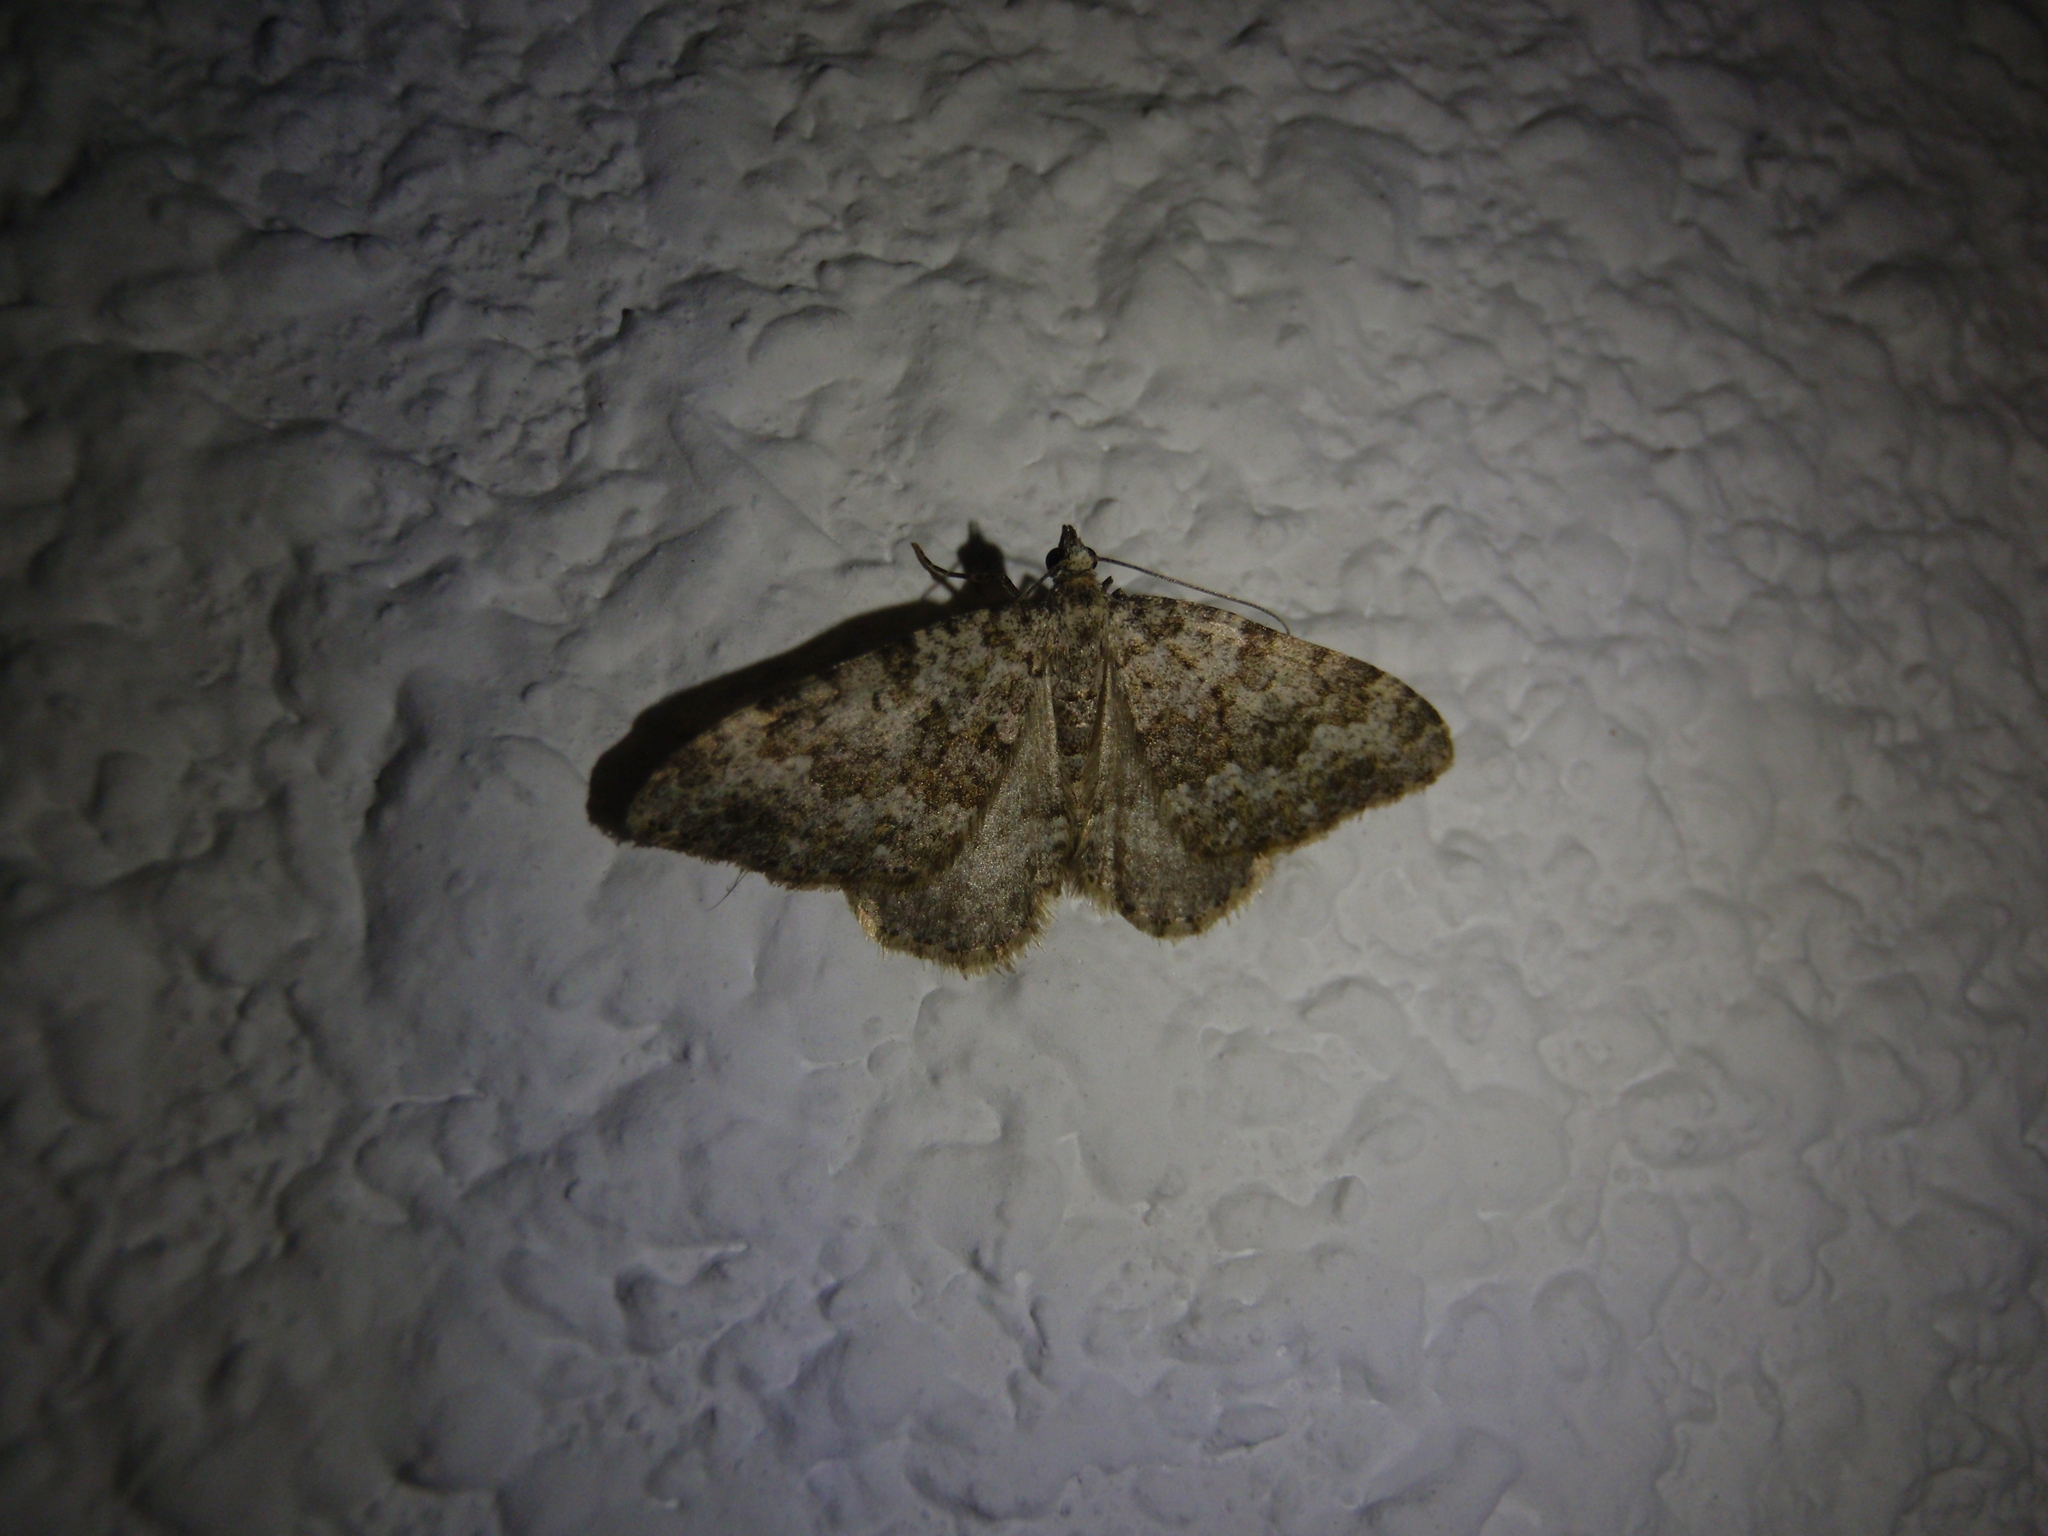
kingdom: Animalia
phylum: Arthropoda
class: Insecta
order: Lepidoptera
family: Geometridae
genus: Nebula
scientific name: Nebula salicata
